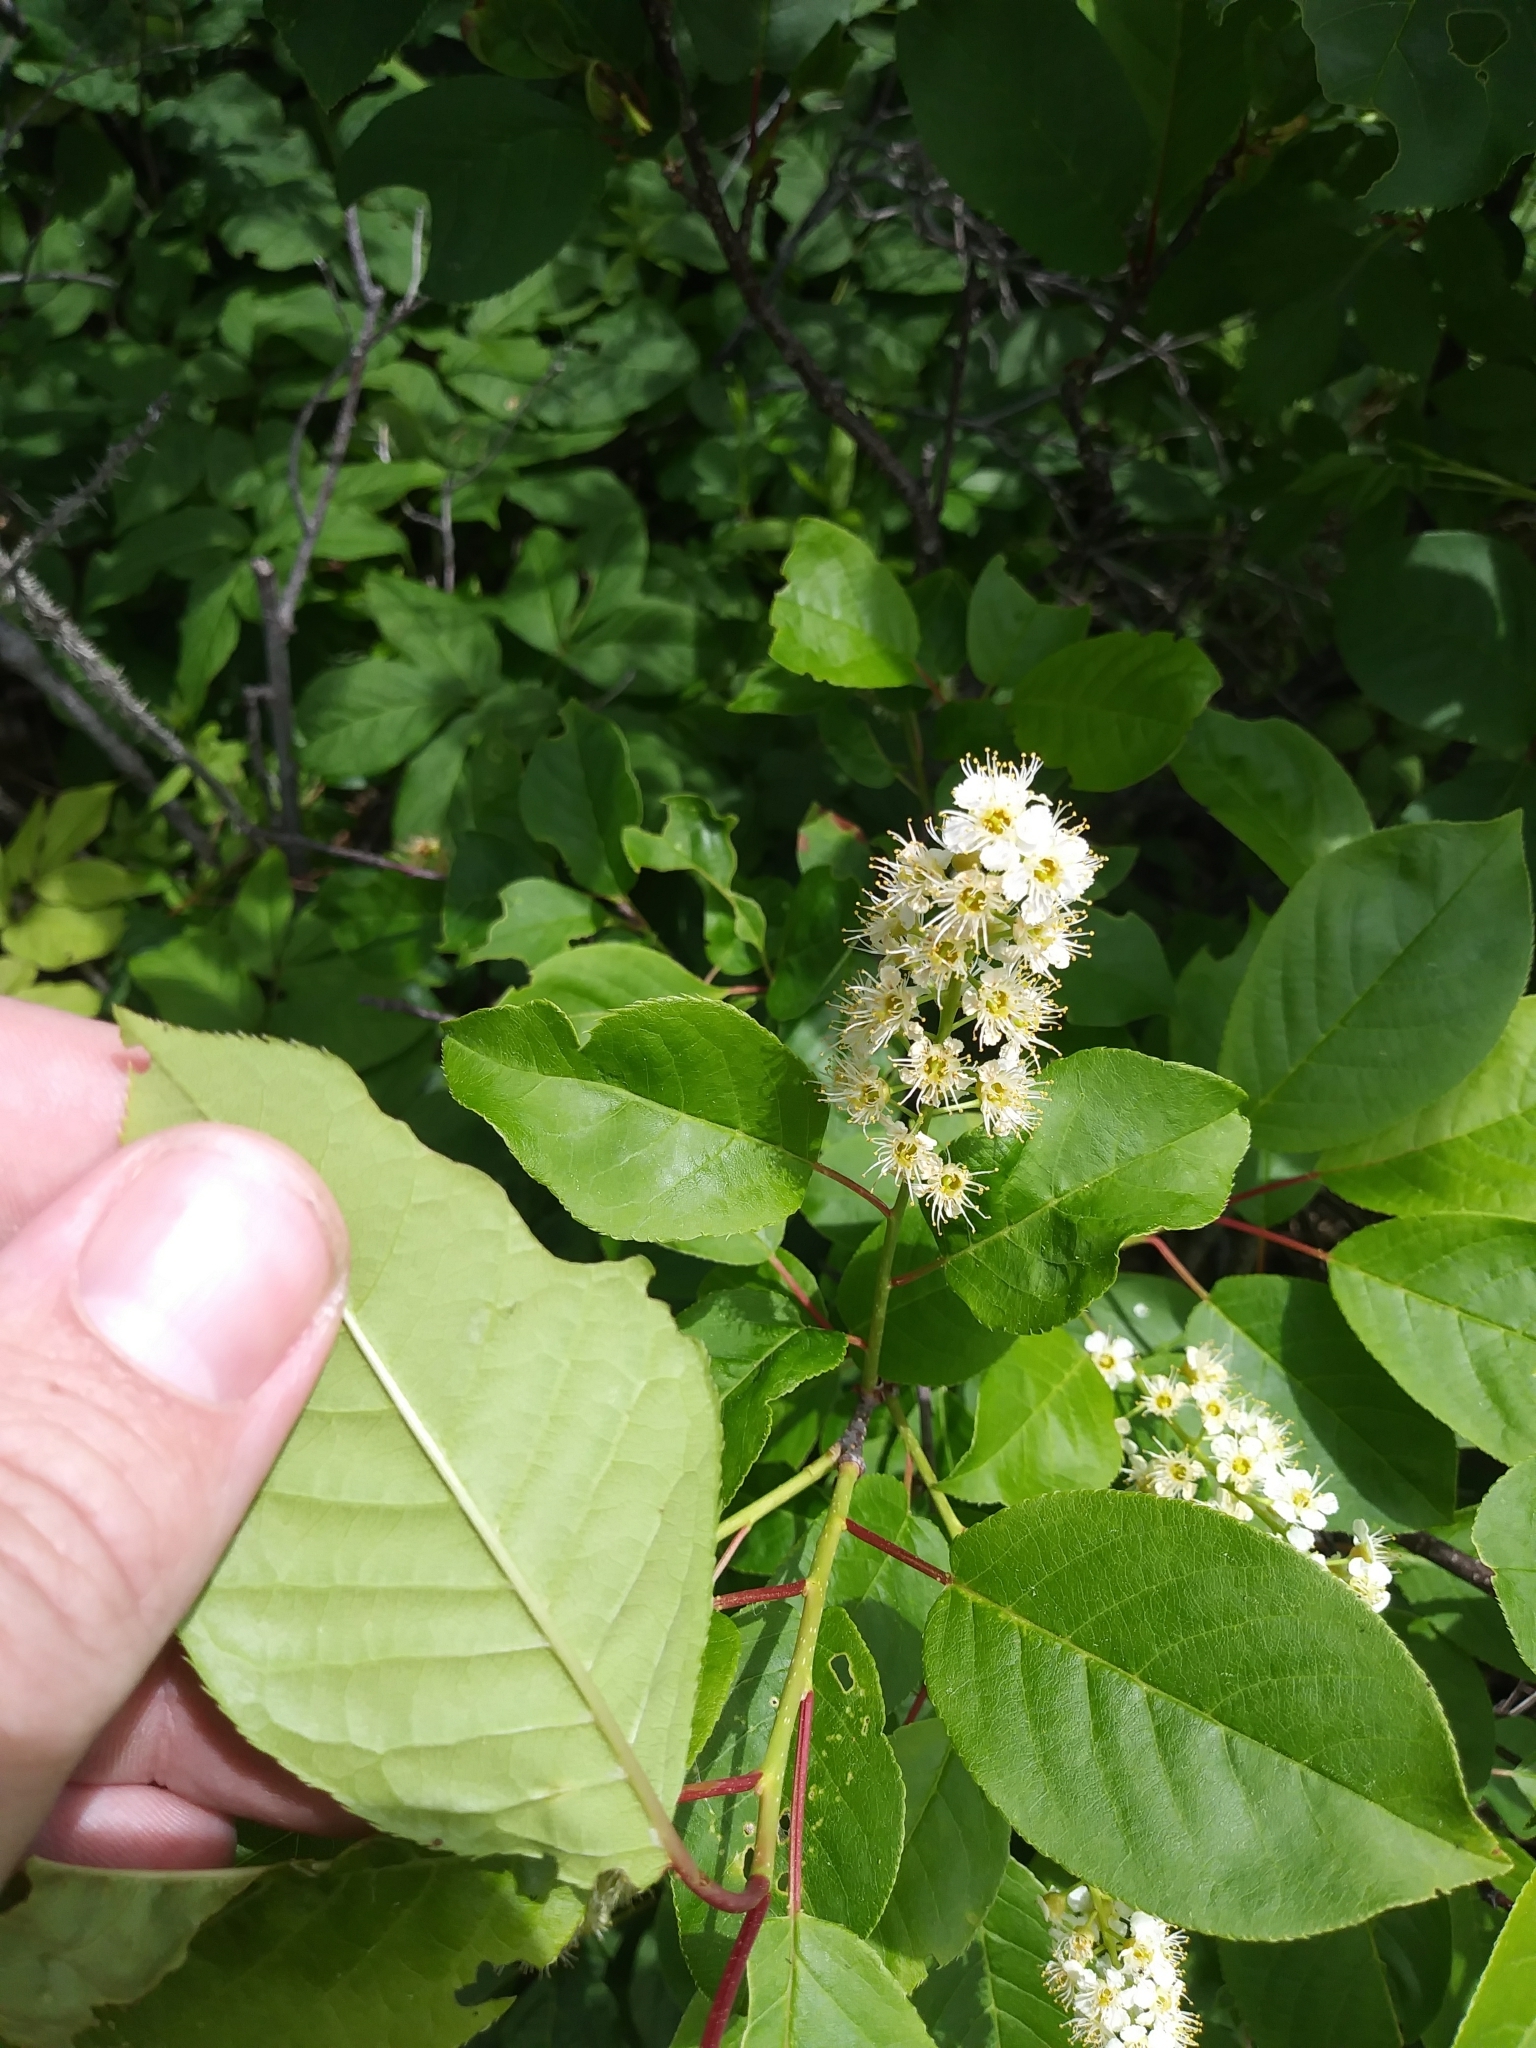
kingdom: Plantae
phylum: Tracheophyta
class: Magnoliopsida
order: Rosales
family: Rosaceae
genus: Prunus
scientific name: Prunus virginiana
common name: Chokecherry
